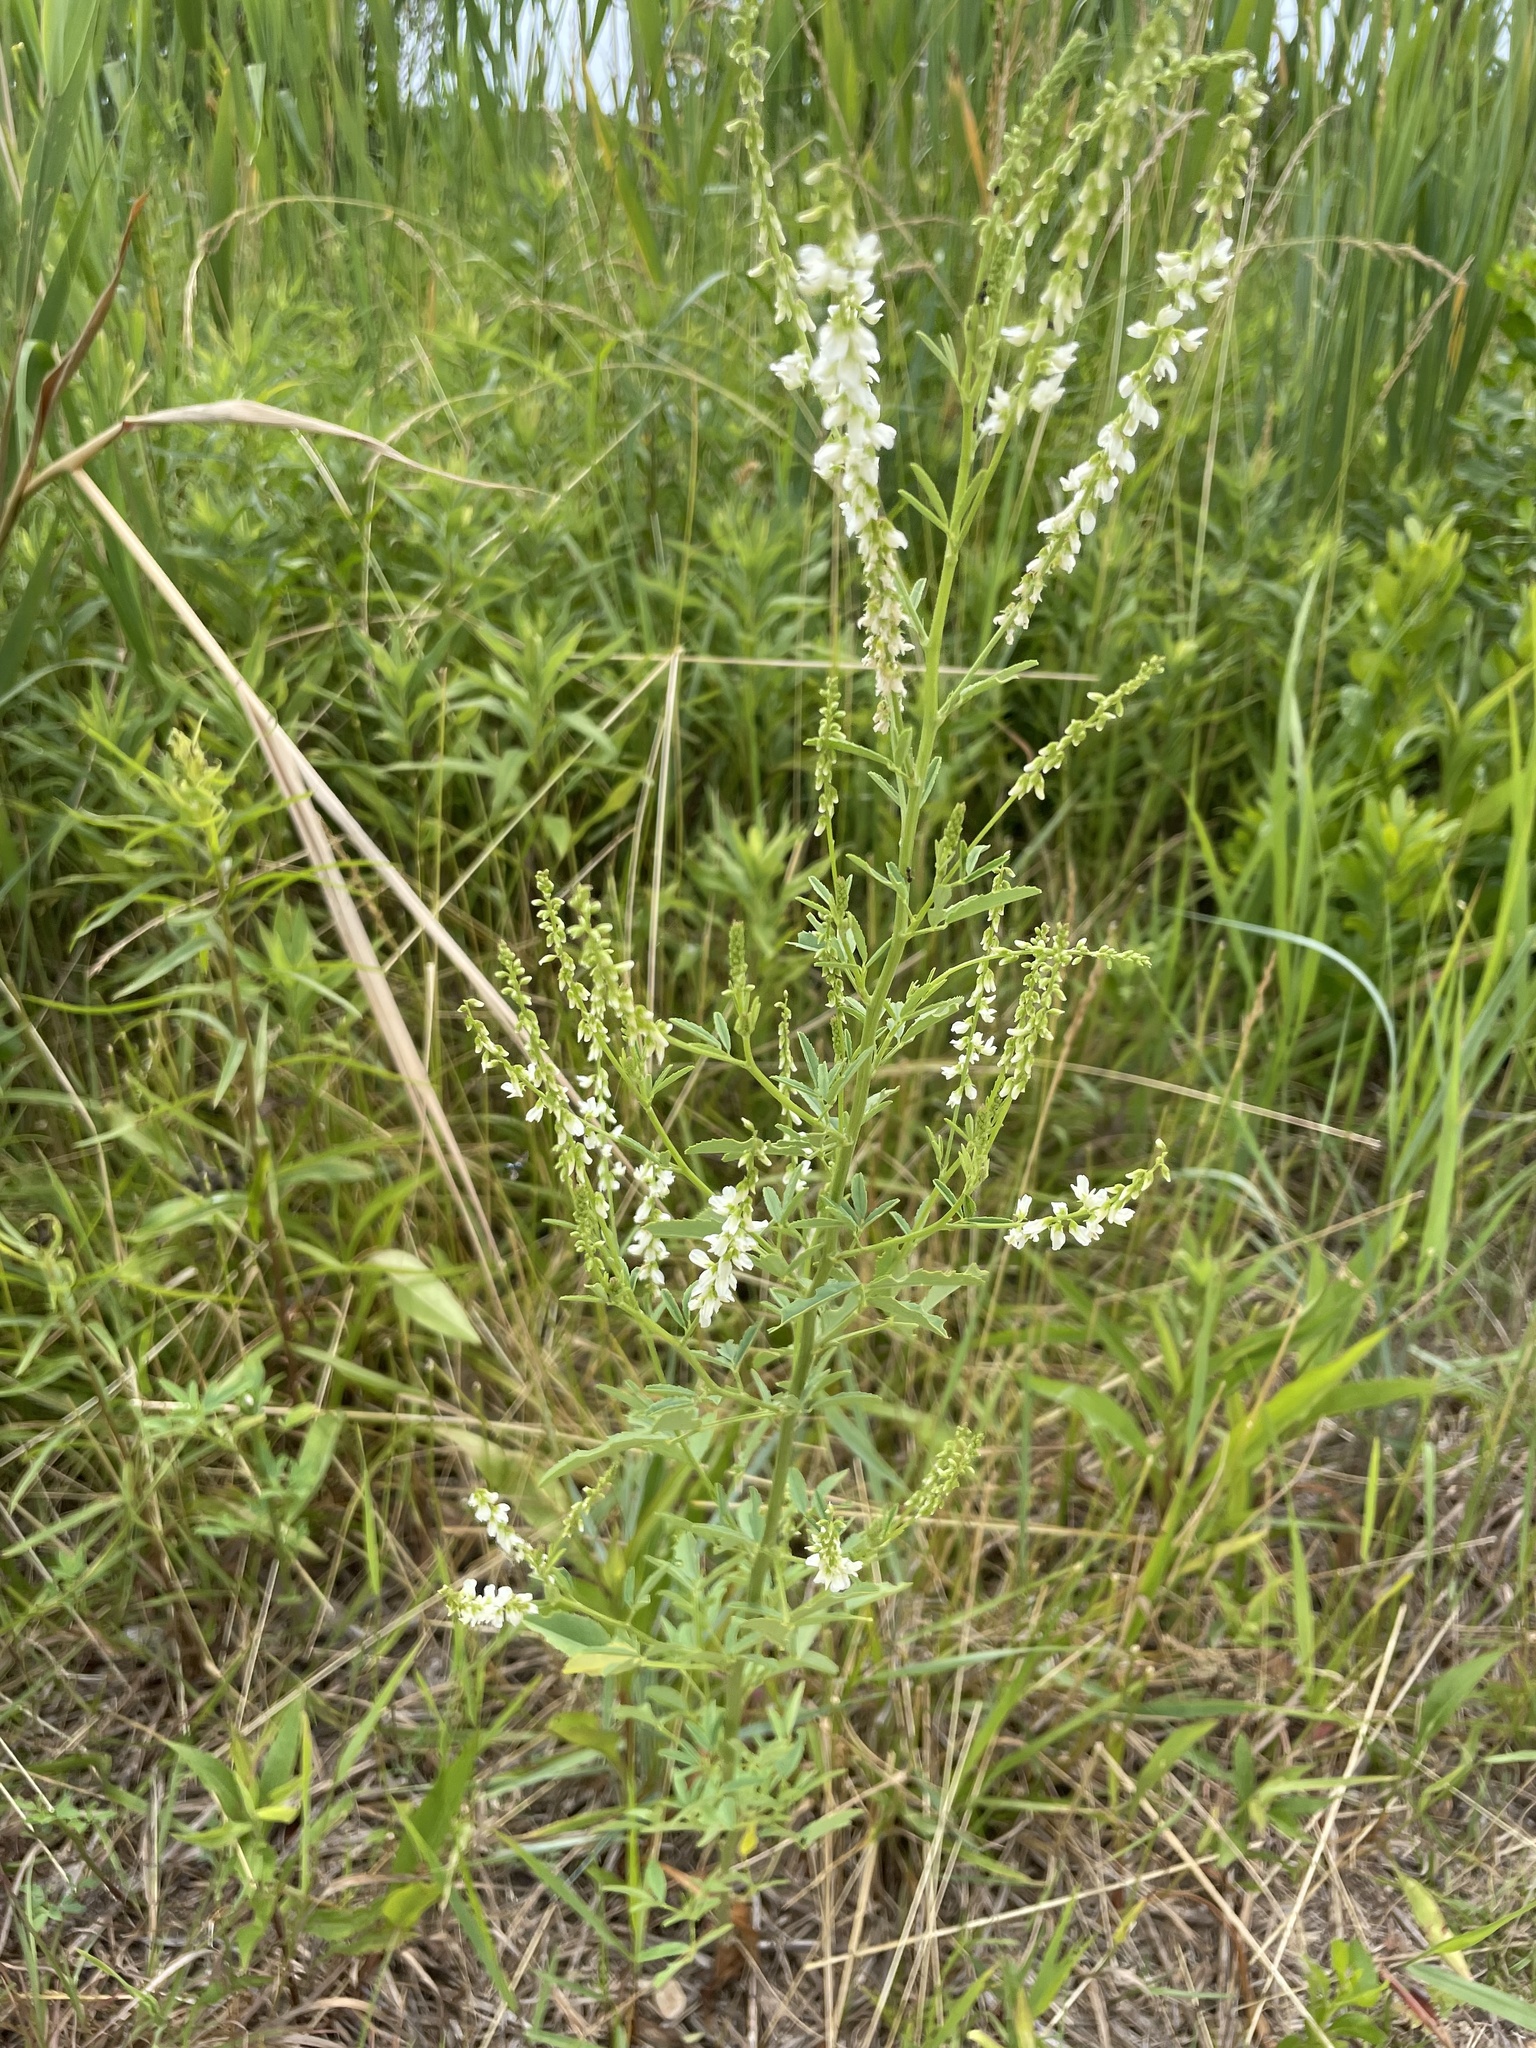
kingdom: Plantae
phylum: Tracheophyta
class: Magnoliopsida
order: Fabales
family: Fabaceae
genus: Melilotus
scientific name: Melilotus albus
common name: White melilot
